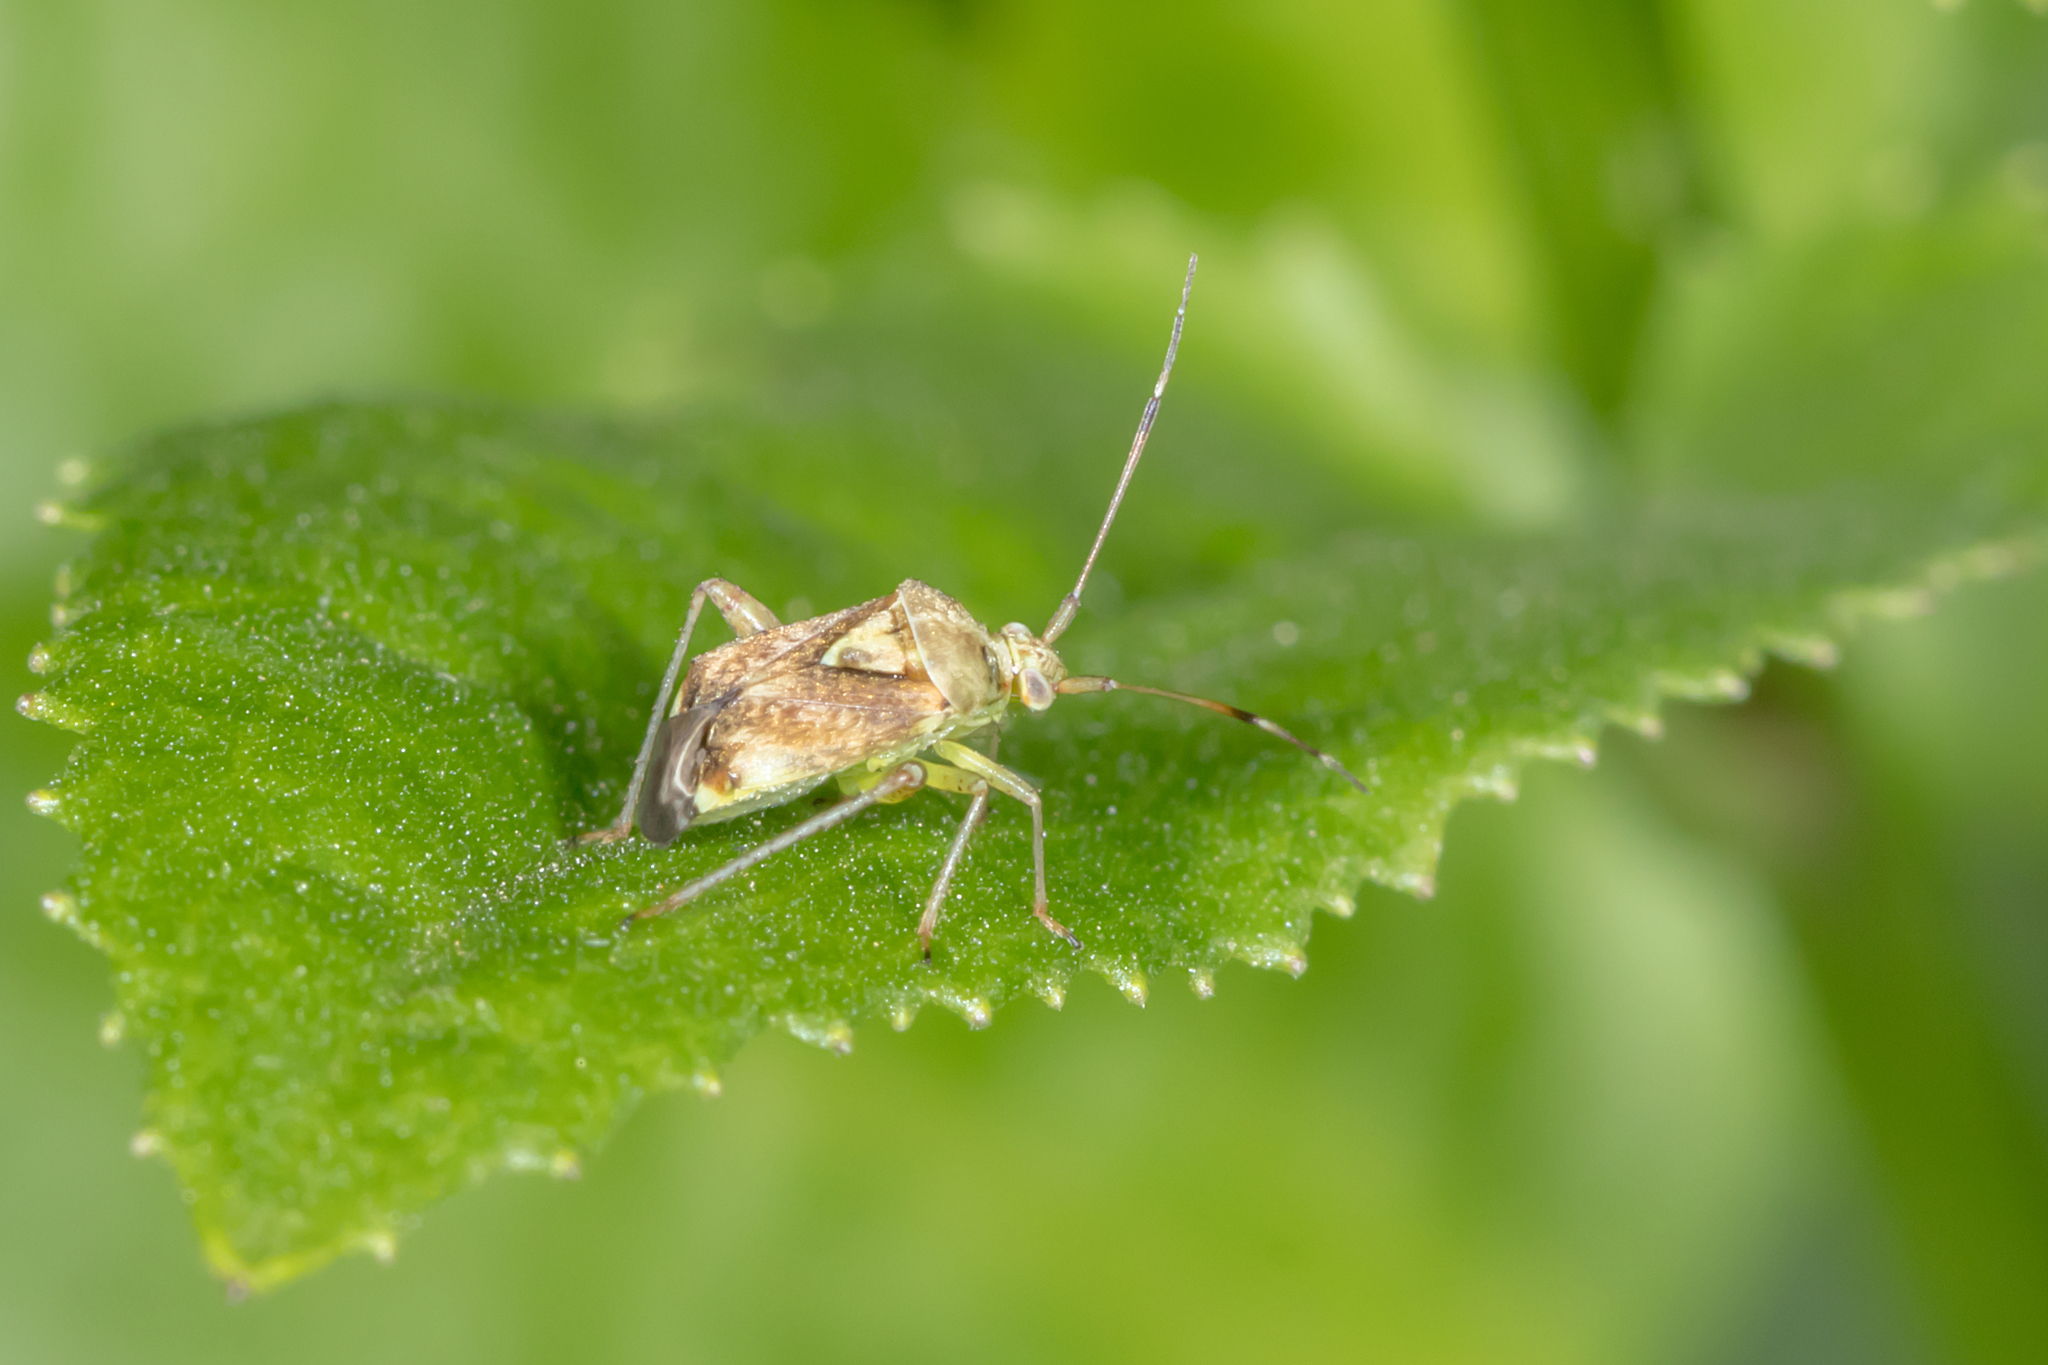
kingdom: Animalia
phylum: Arthropoda
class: Insecta
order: Hemiptera
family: Miridae
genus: Sidnia
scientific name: Sidnia kinbergi
